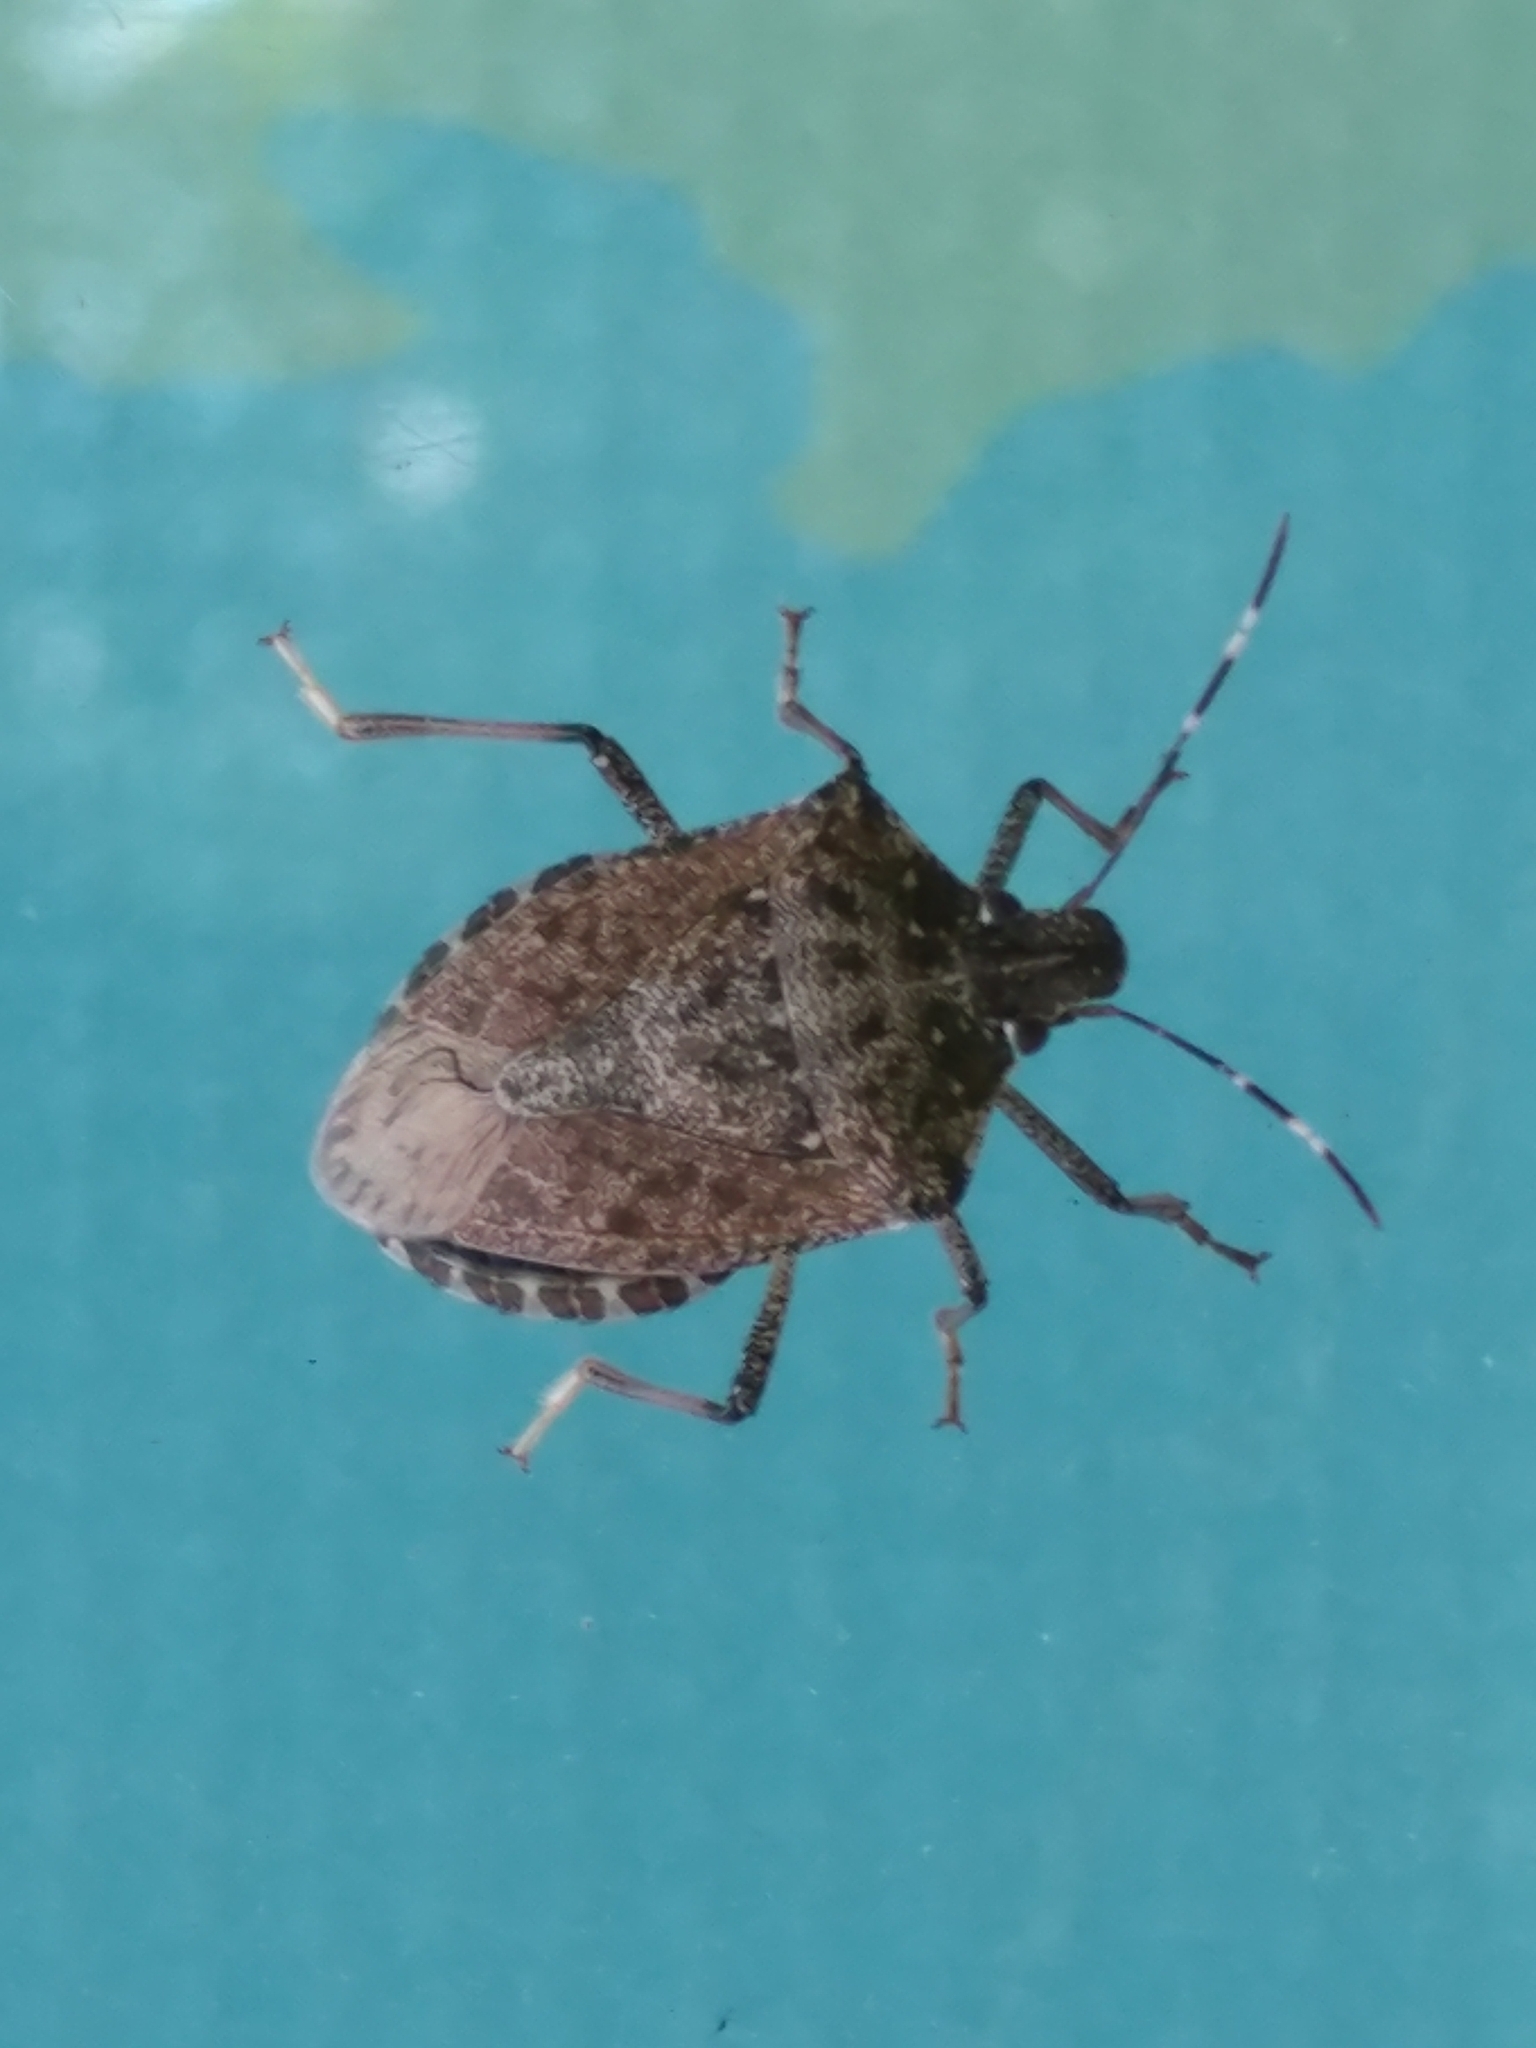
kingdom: Animalia
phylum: Arthropoda
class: Insecta
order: Hemiptera
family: Pentatomidae
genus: Halyomorpha
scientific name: Halyomorpha halys
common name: Brown marmorated stink bug
